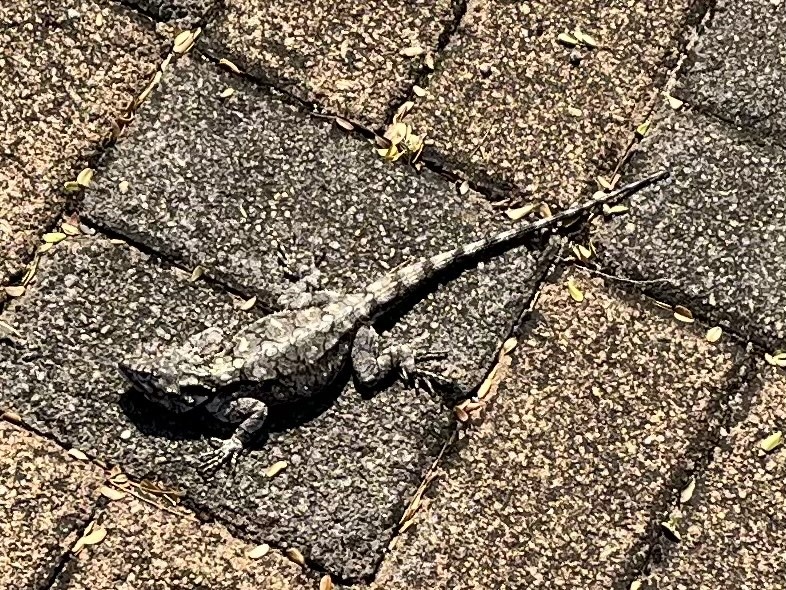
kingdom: Animalia
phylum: Chordata
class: Squamata
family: Agamidae
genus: Acanthocercus
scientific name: Acanthocercus atricollis
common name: Southern tree agama
